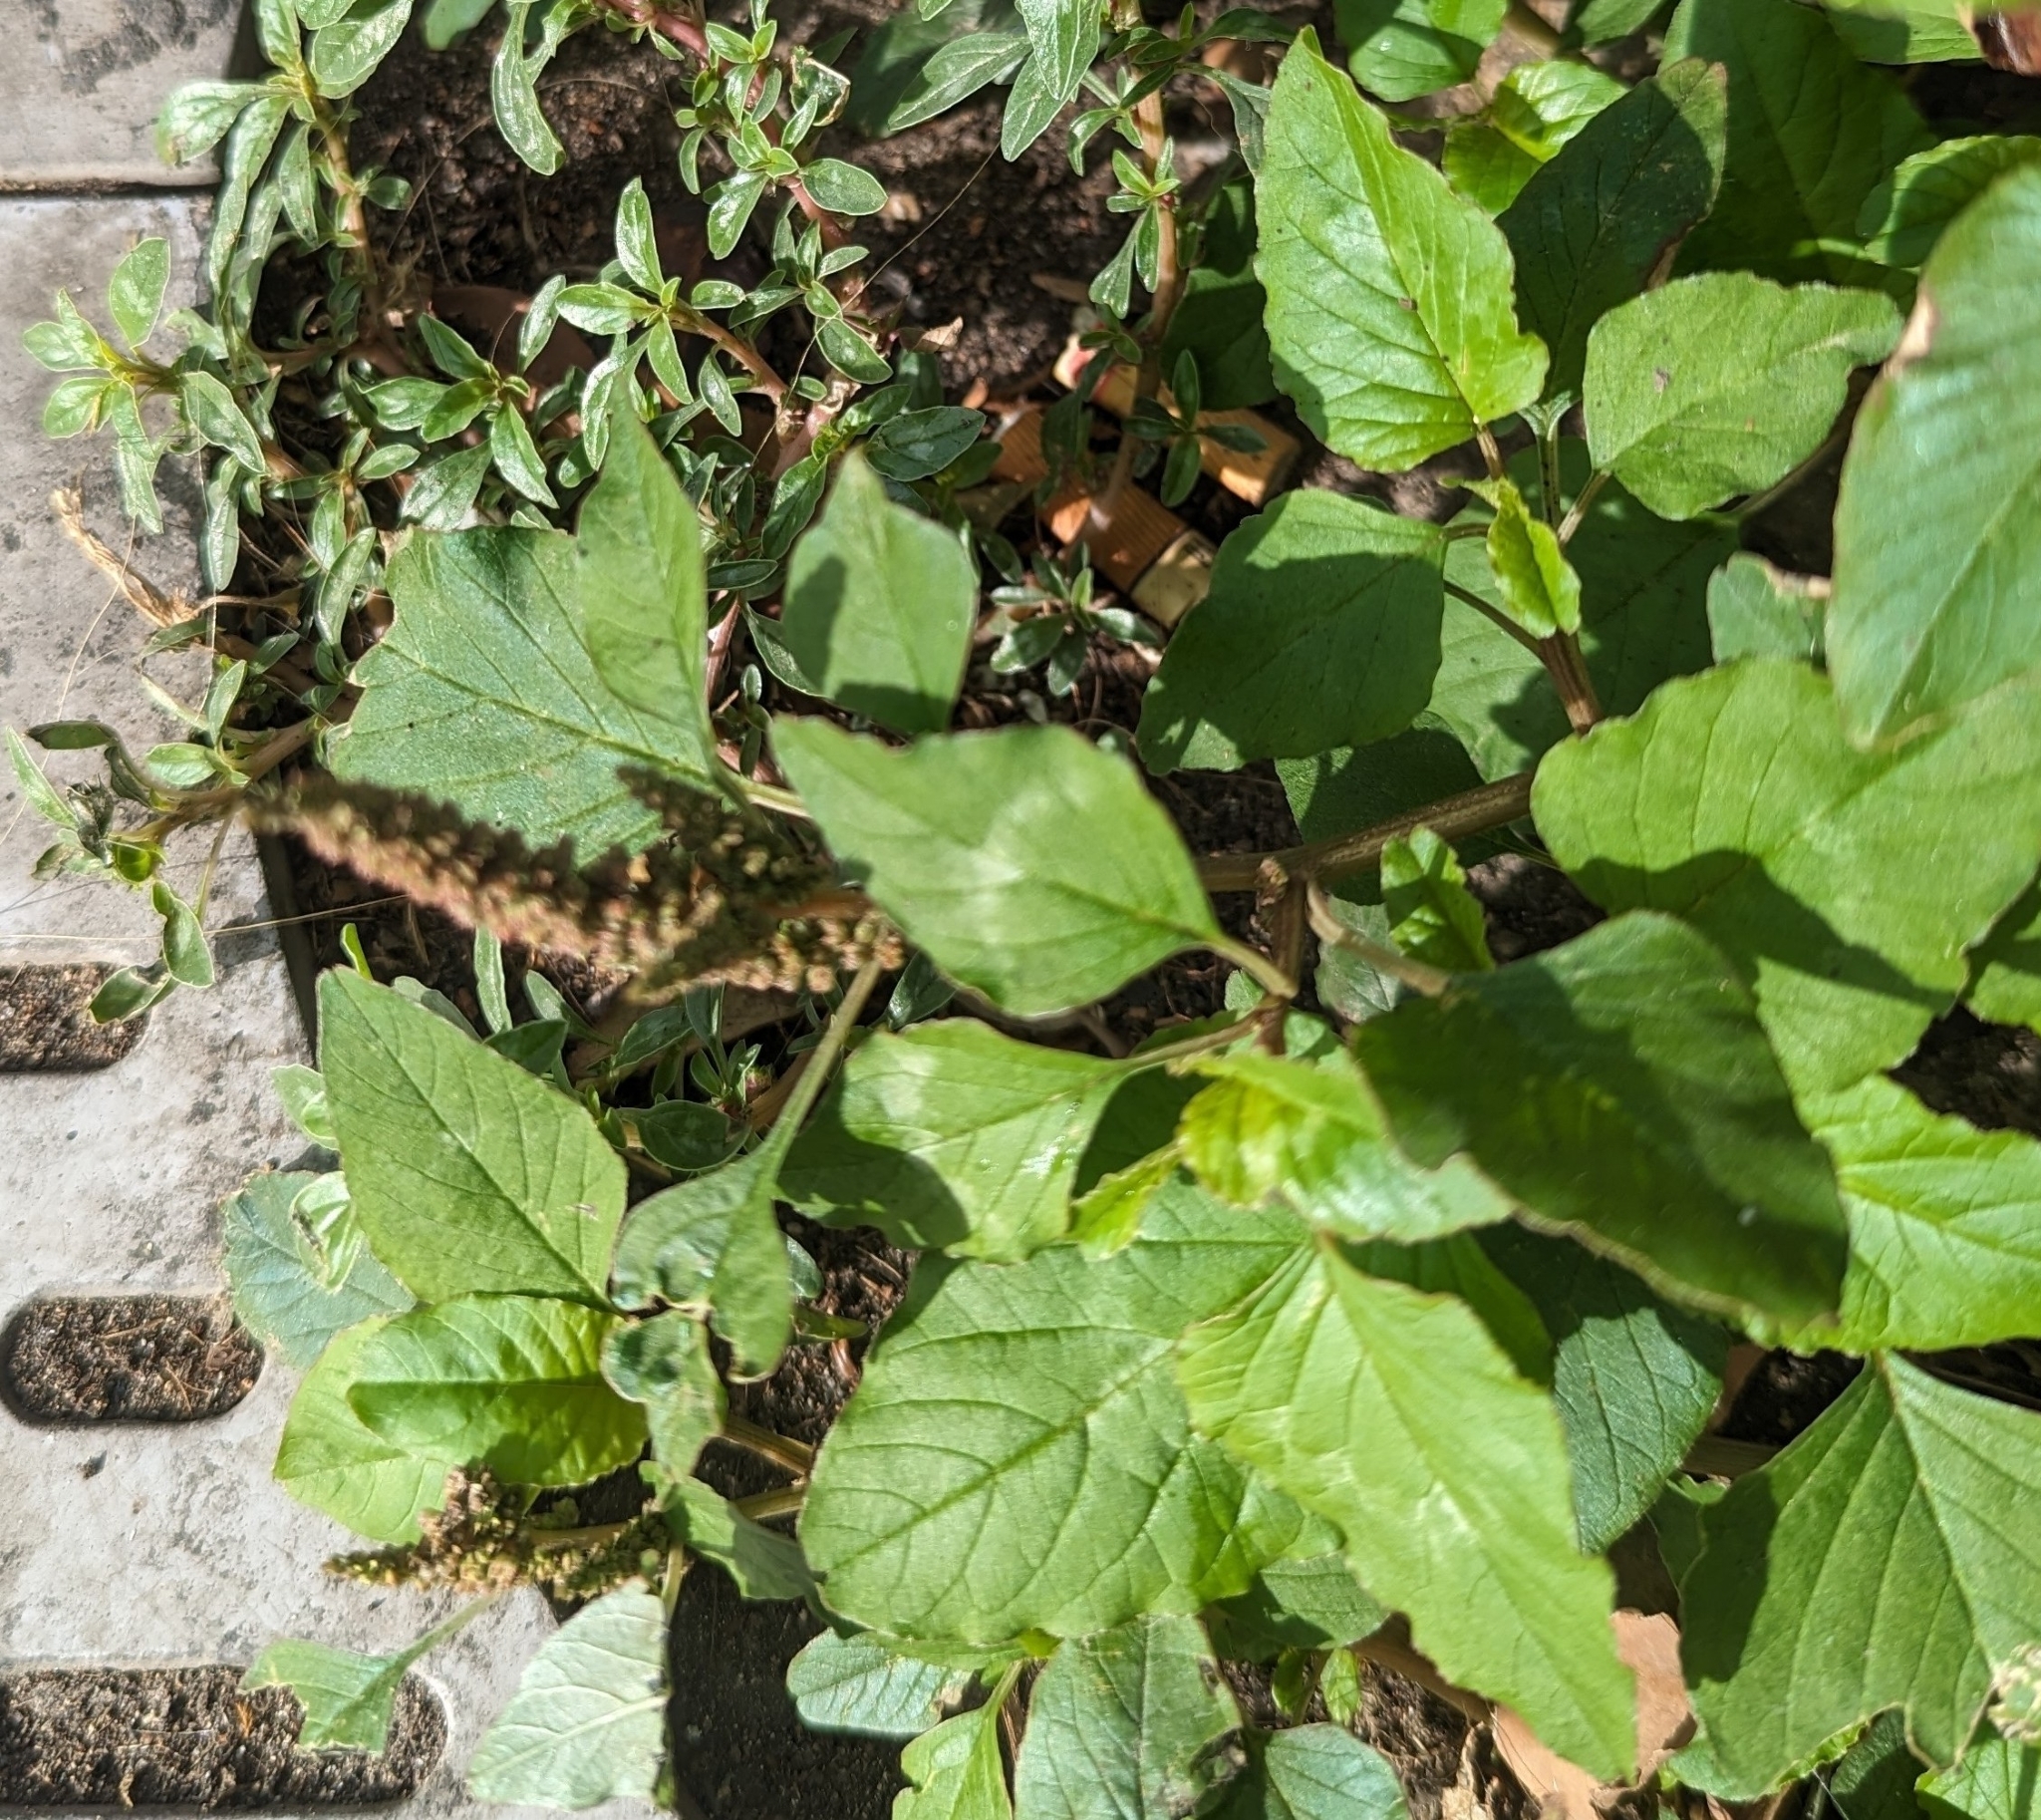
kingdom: Plantae
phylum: Tracheophyta
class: Magnoliopsida
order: Caryophyllales
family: Amaranthaceae
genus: Amaranthus
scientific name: Amaranthus viridis
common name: Slender amaranth
